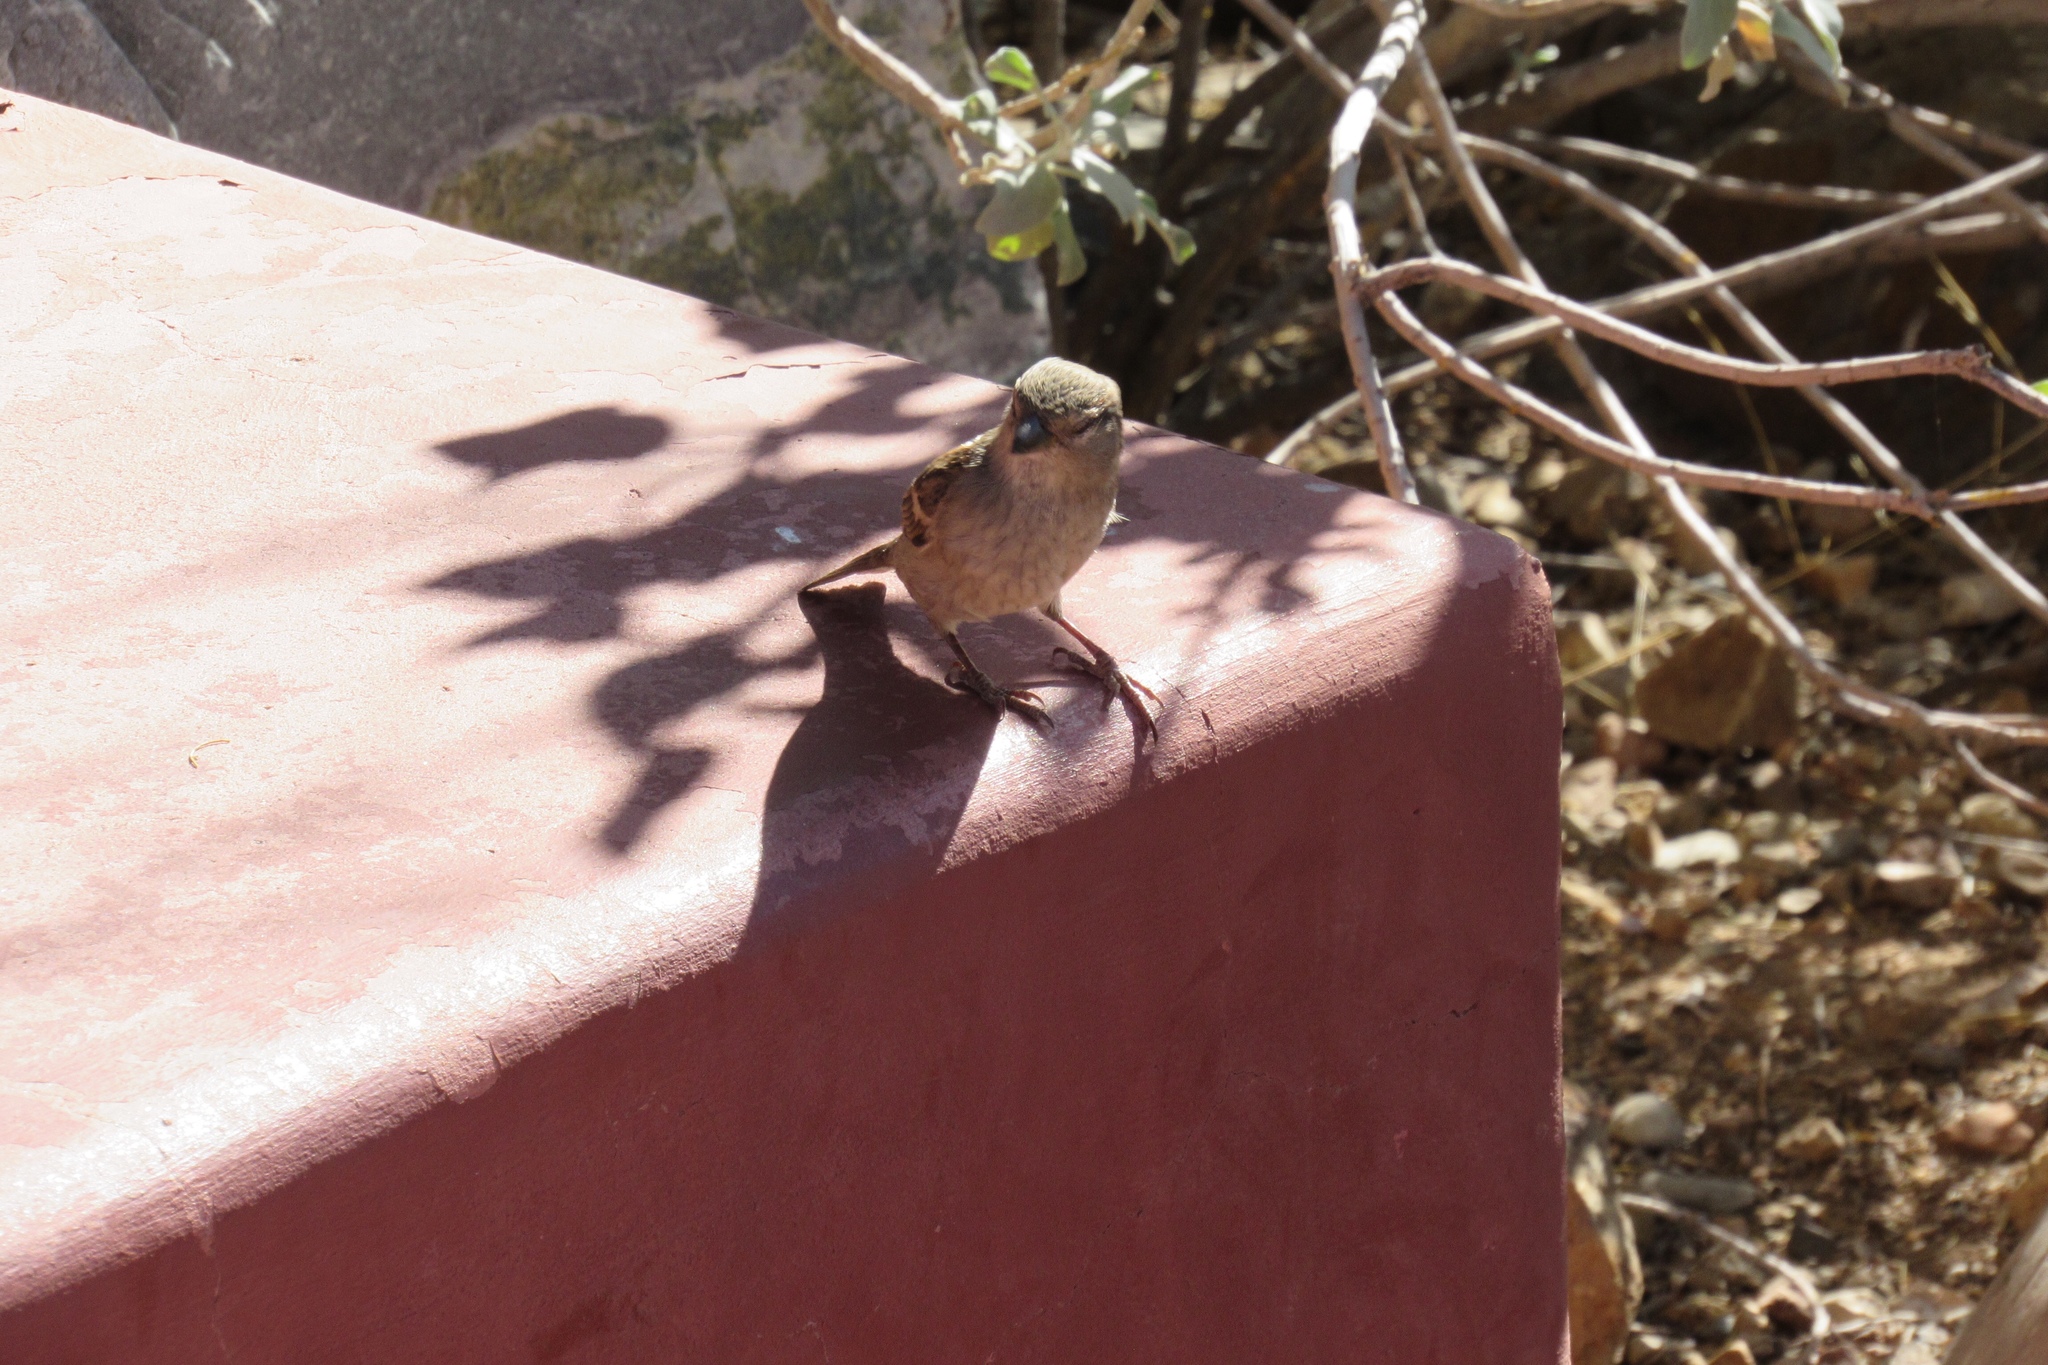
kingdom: Animalia
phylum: Chordata
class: Aves
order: Passeriformes
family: Passeridae
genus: Passer
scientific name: Passer domesticus
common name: House sparrow
